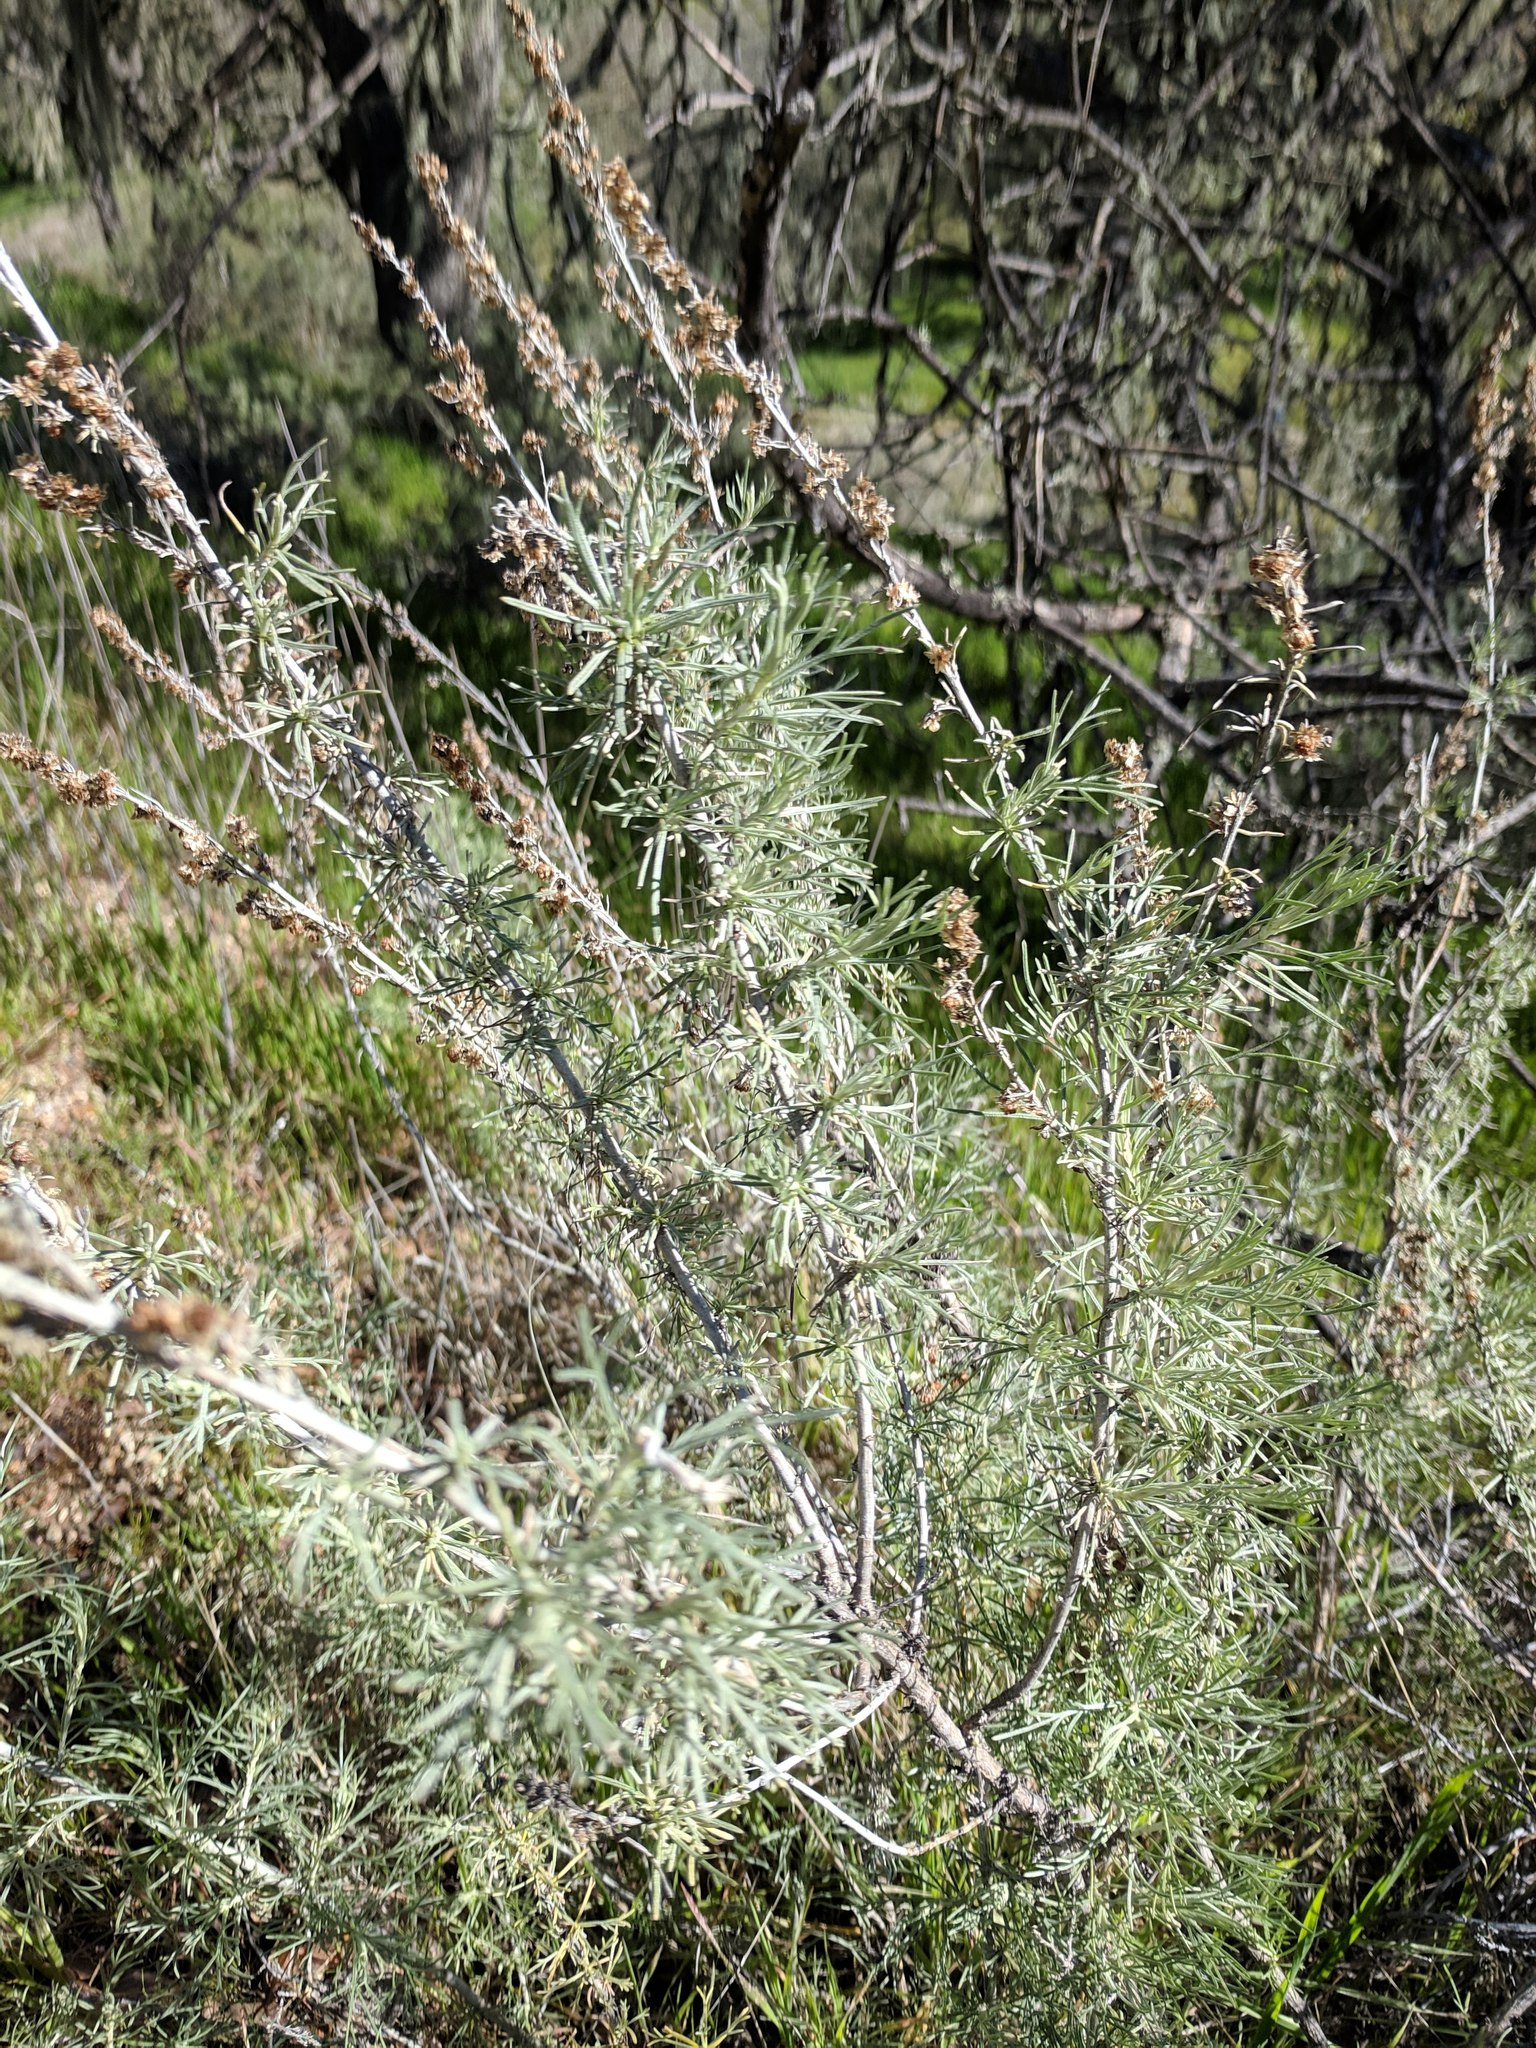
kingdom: Plantae
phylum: Tracheophyta
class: Magnoliopsida
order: Asterales
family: Asteraceae
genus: Artemisia
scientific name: Artemisia californica
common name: California sagebrush
